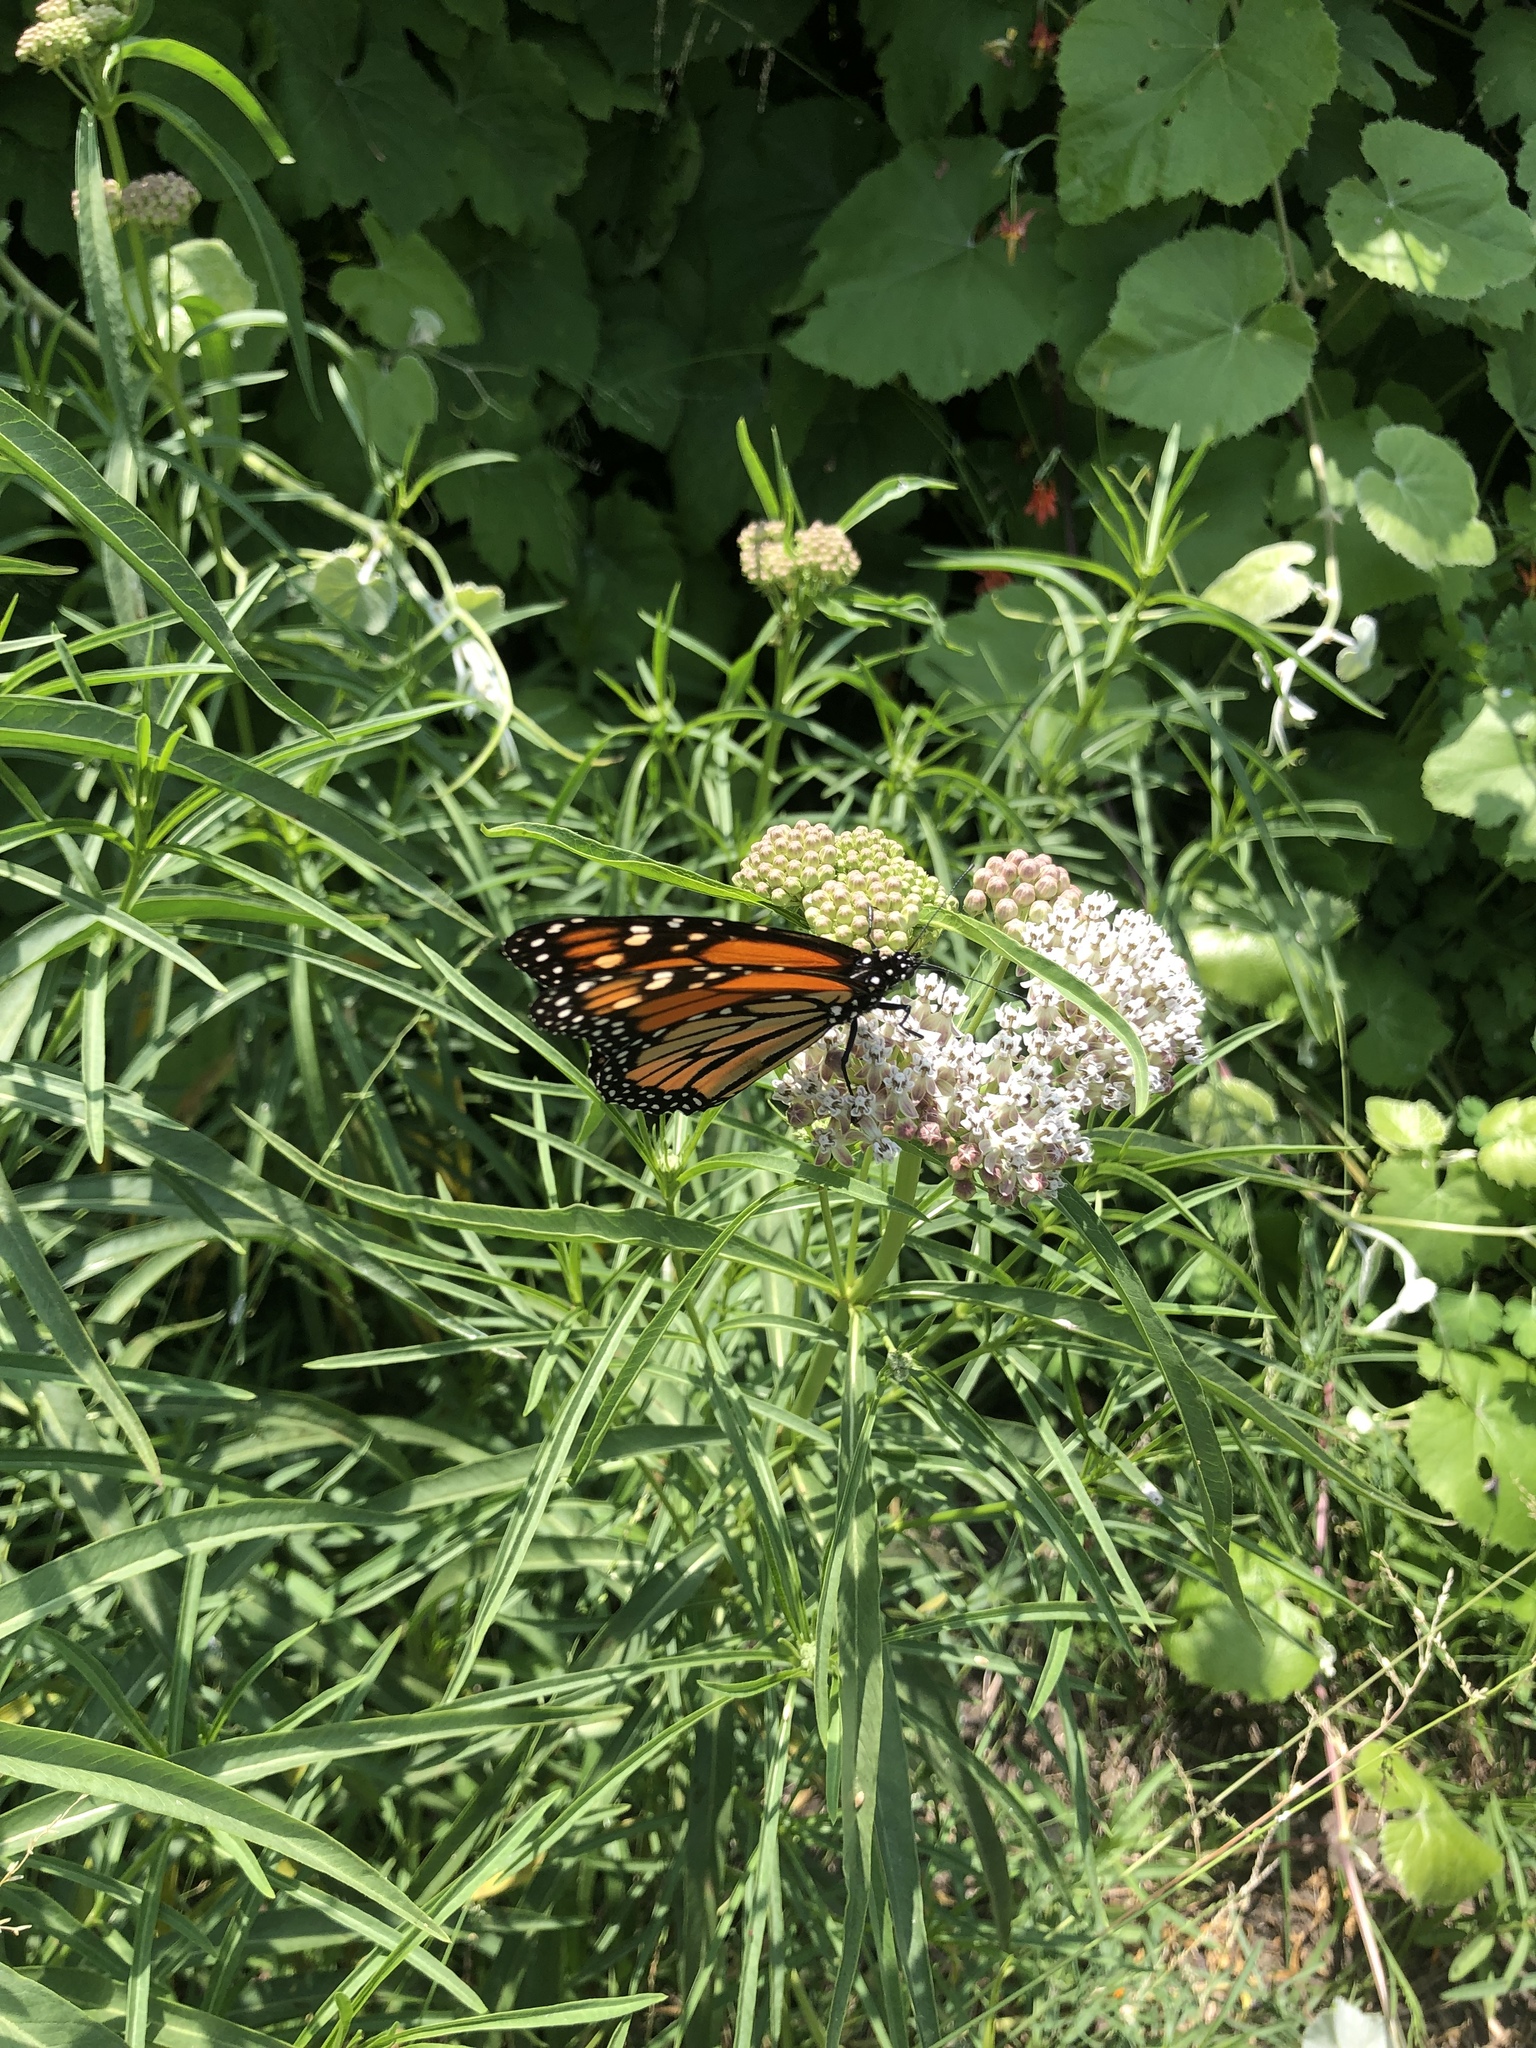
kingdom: Animalia
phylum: Arthropoda
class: Insecta
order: Lepidoptera
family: Nymphalidae
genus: Danaus
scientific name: Danaus plexippus
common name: Monarch
